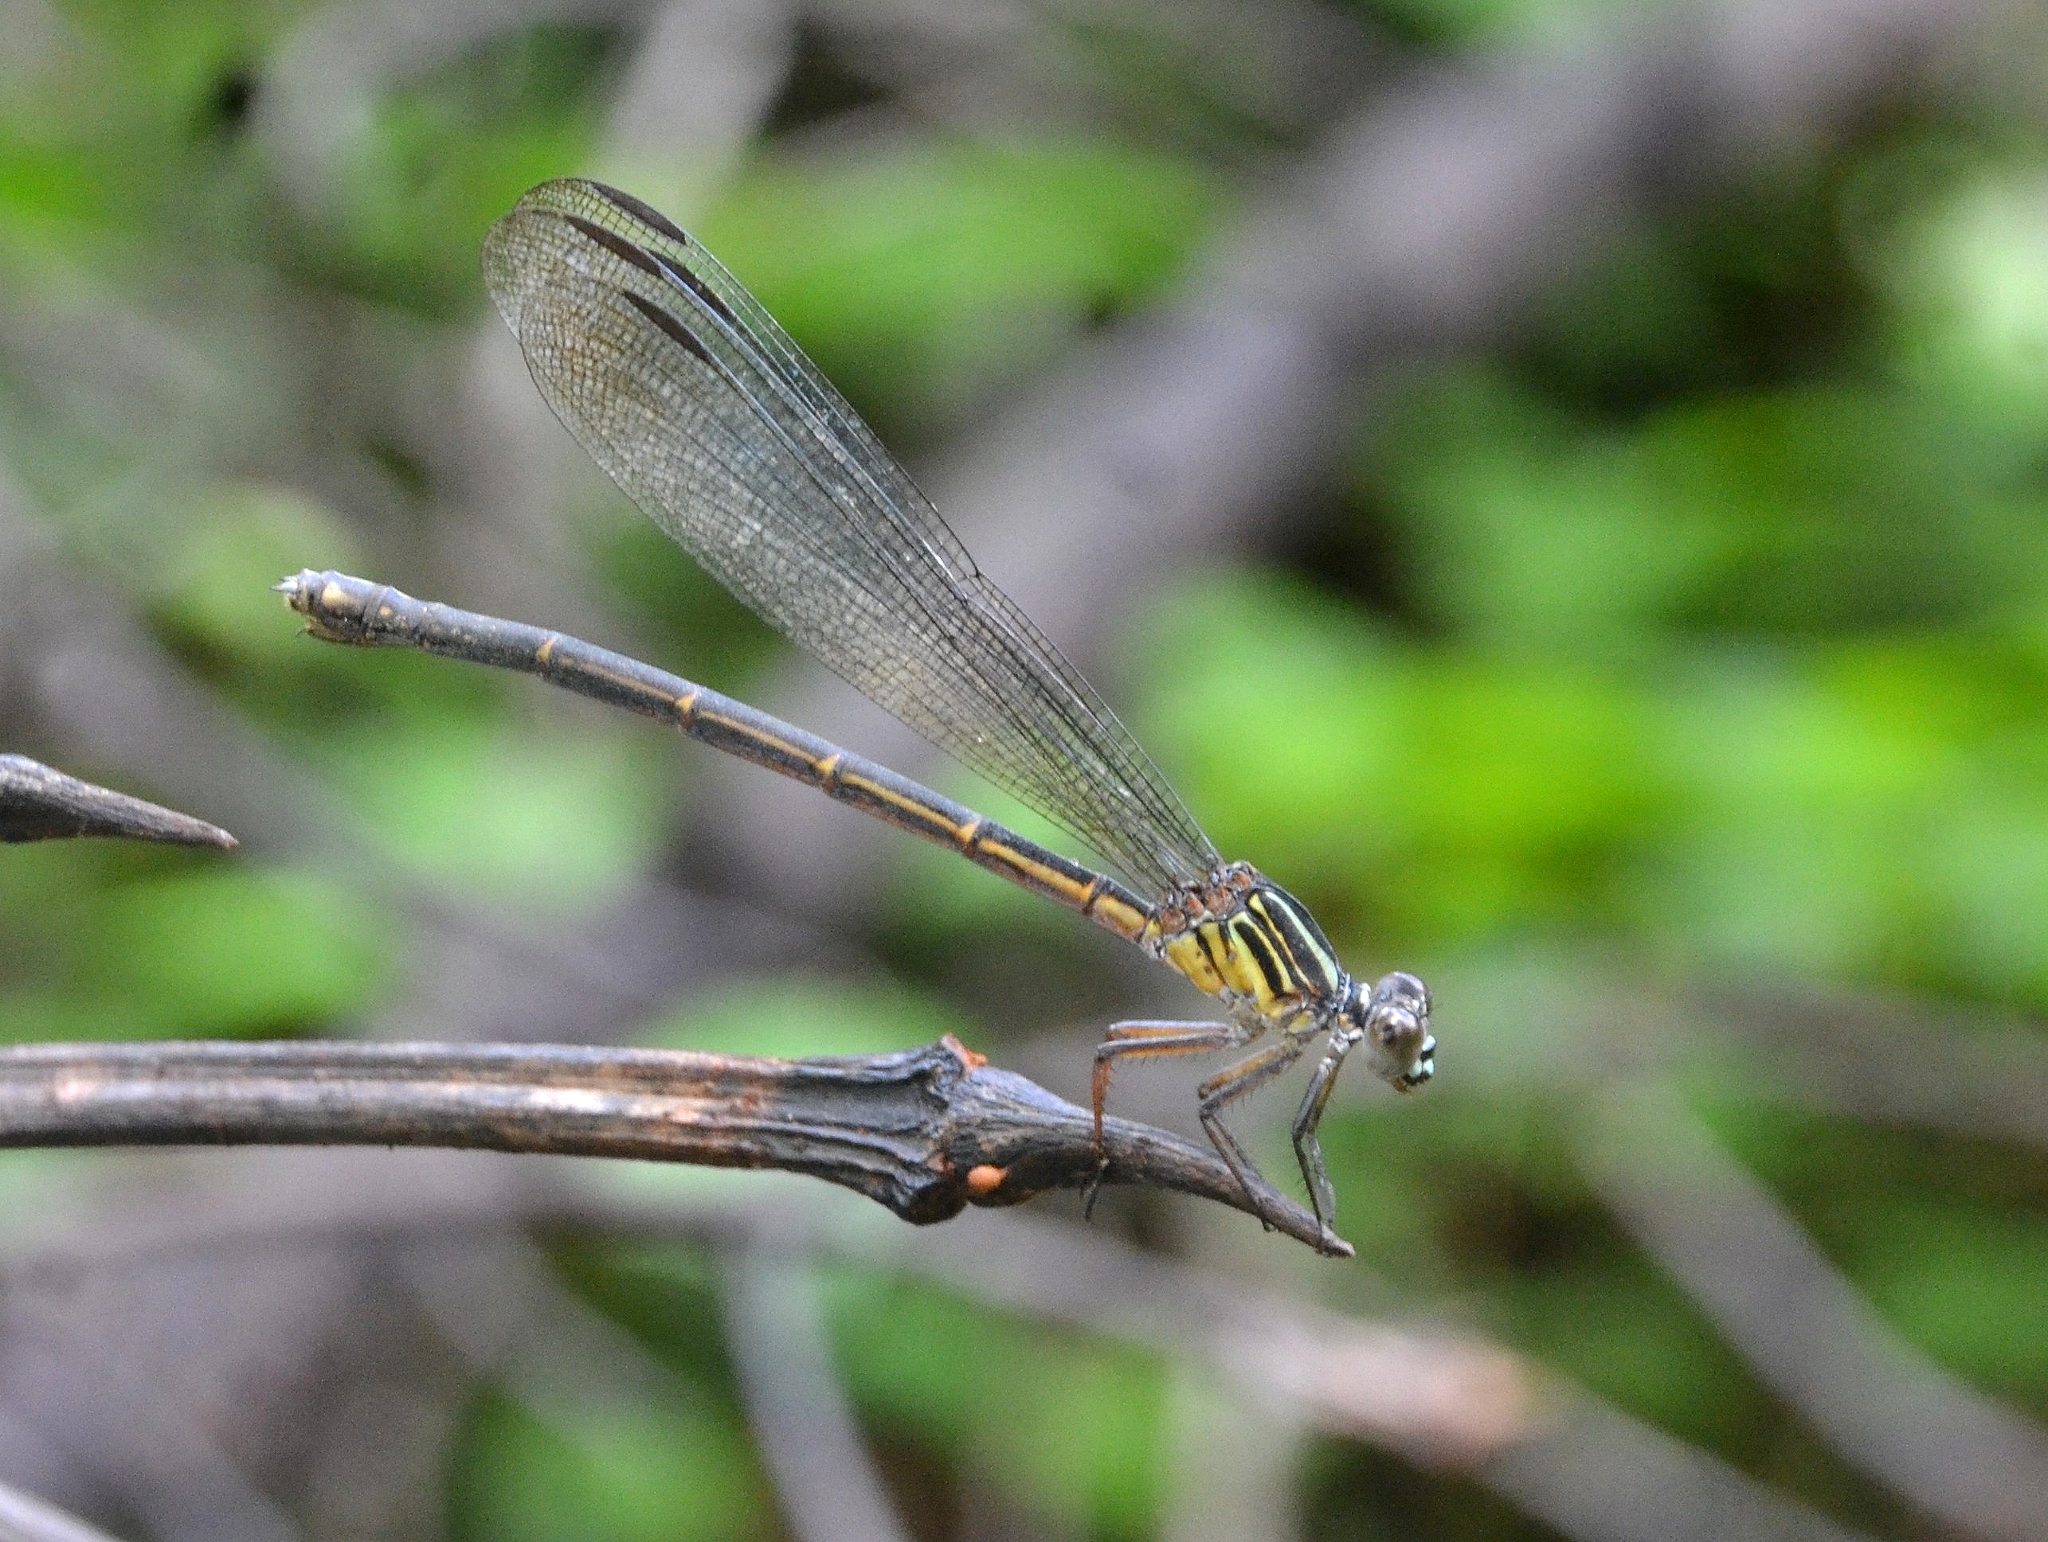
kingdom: Animalia
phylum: Arthropoda
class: Insecta
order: Odonata
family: Euphaeidae
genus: Euphaea
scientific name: Euphaea fraseri
